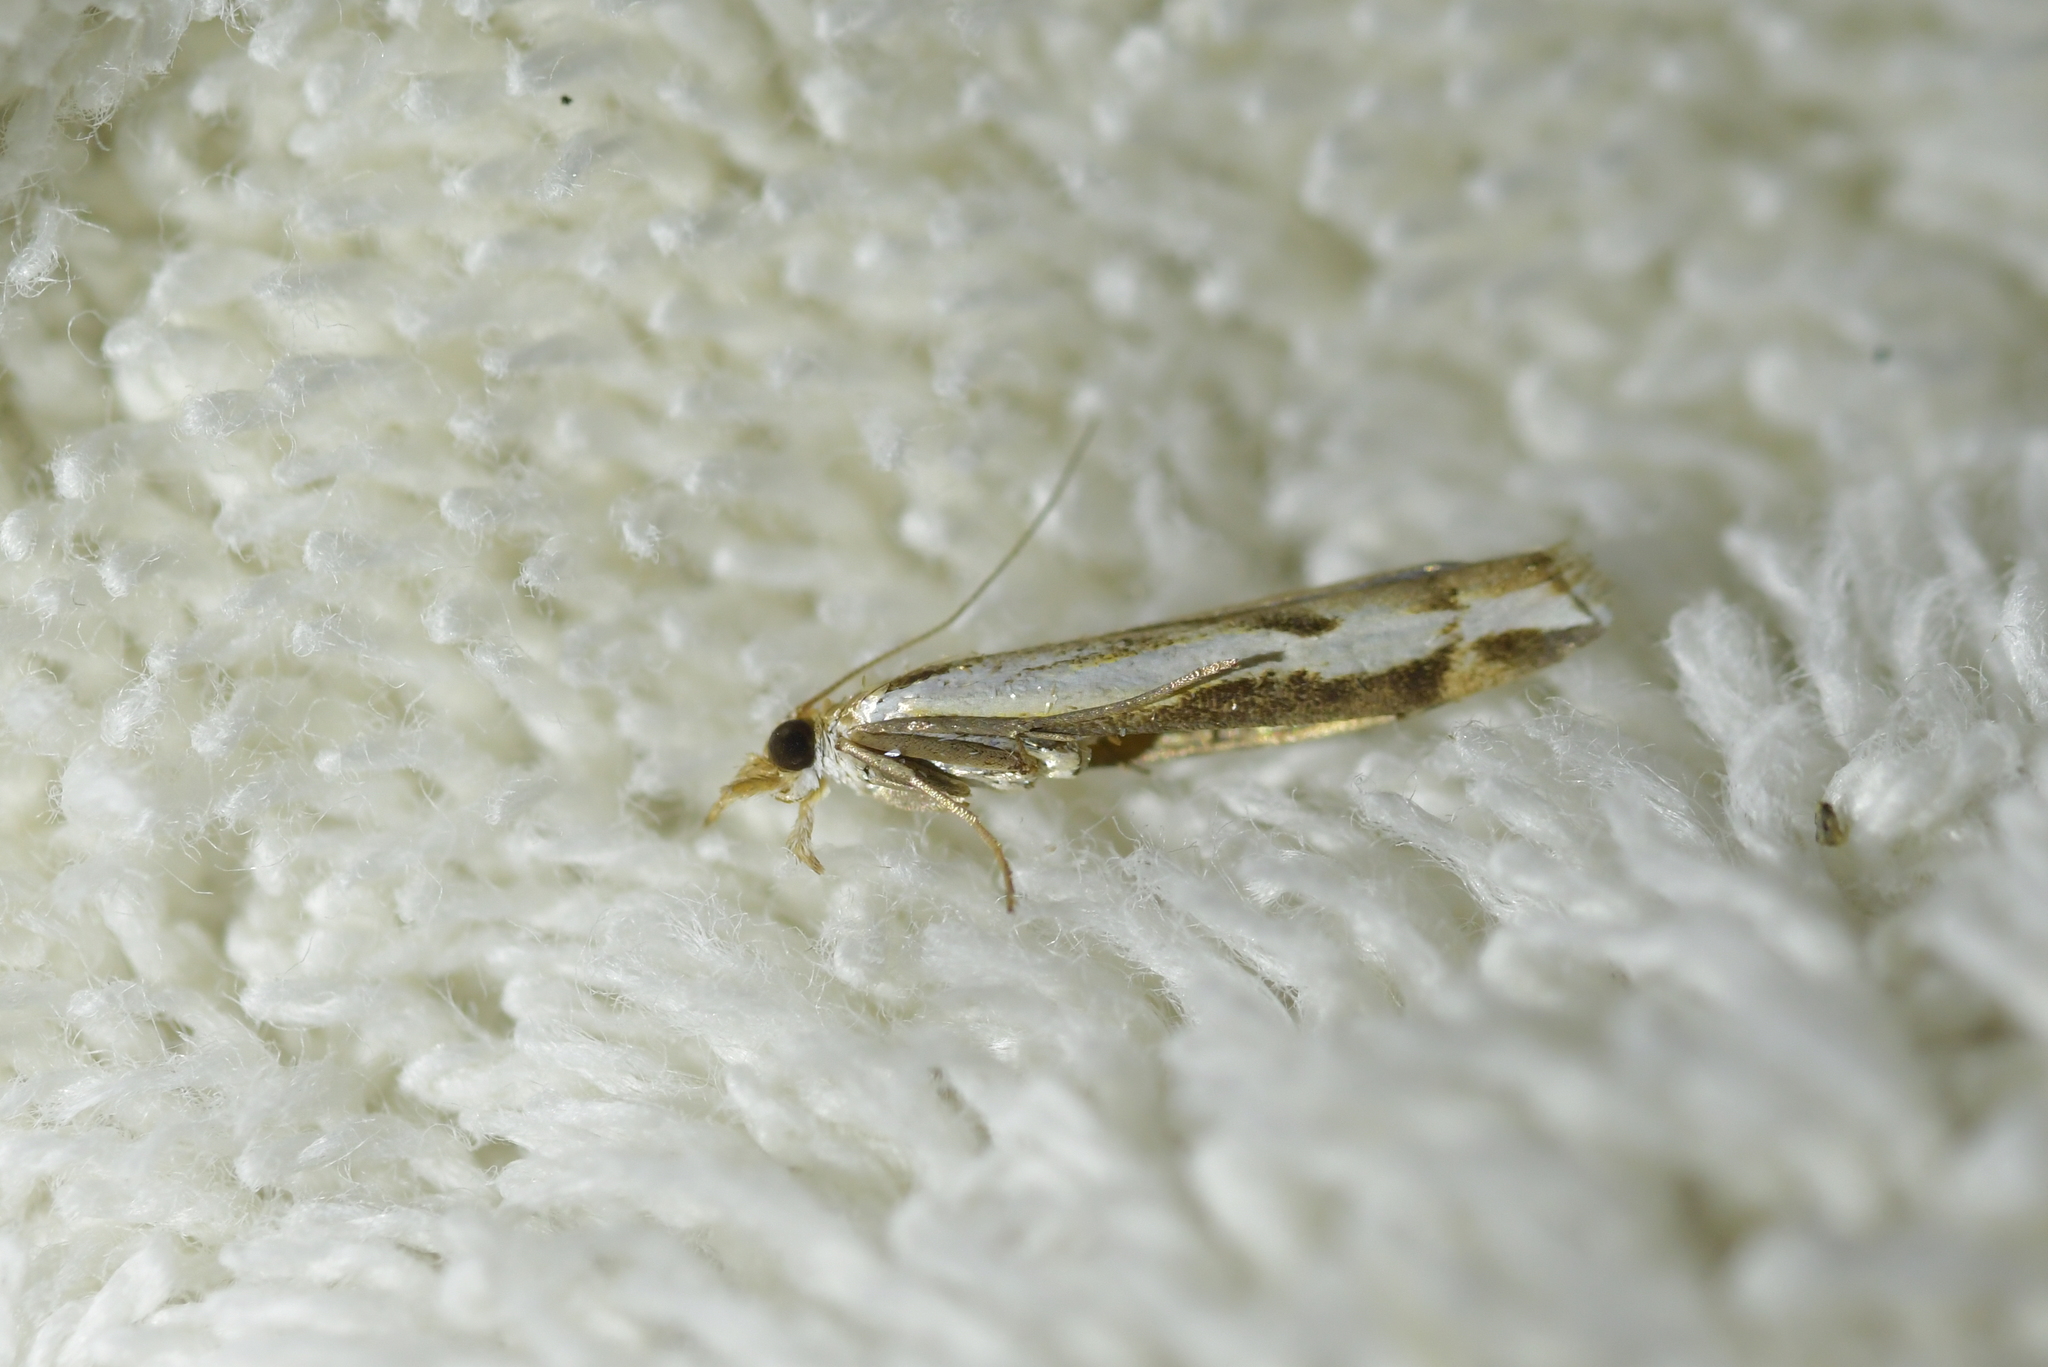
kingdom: Animalia
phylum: Arthropoda
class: Insecta
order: Lepidoptera
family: Crambidae
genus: Orocrambus
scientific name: Orocrambus flexuosellus
